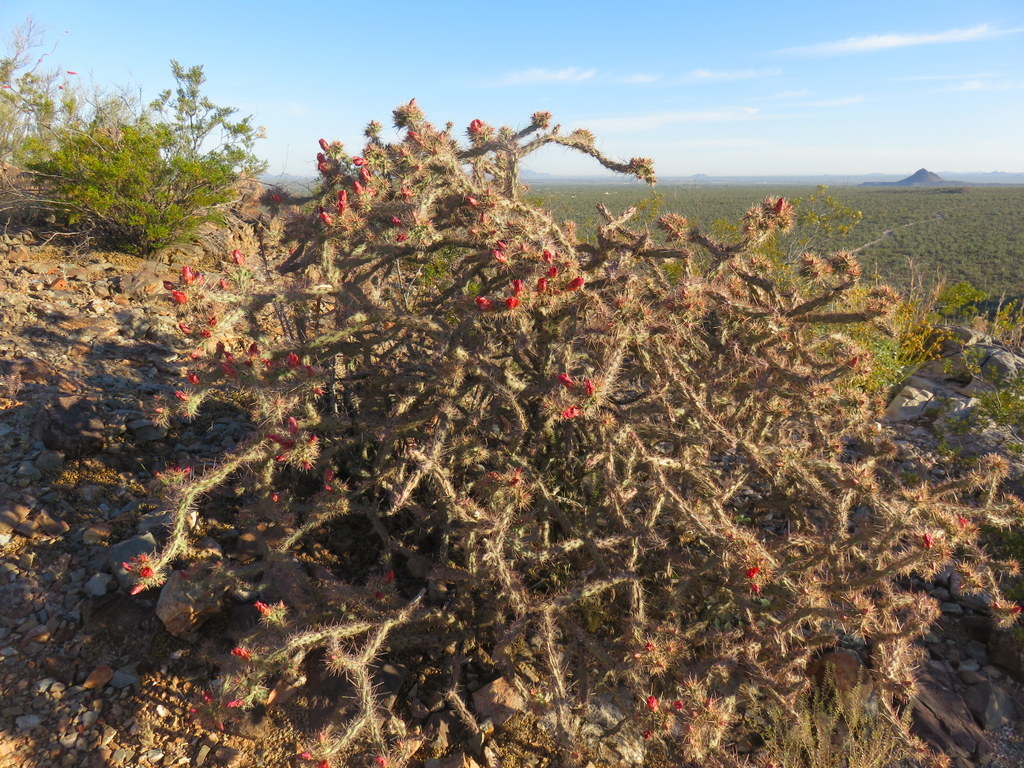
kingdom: Plantae
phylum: Tracheophyta
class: Magnoliopsida
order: Caryophyllales
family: Cactaceae
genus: Cylindropuntia
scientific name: Cylindropuntia thurberi
